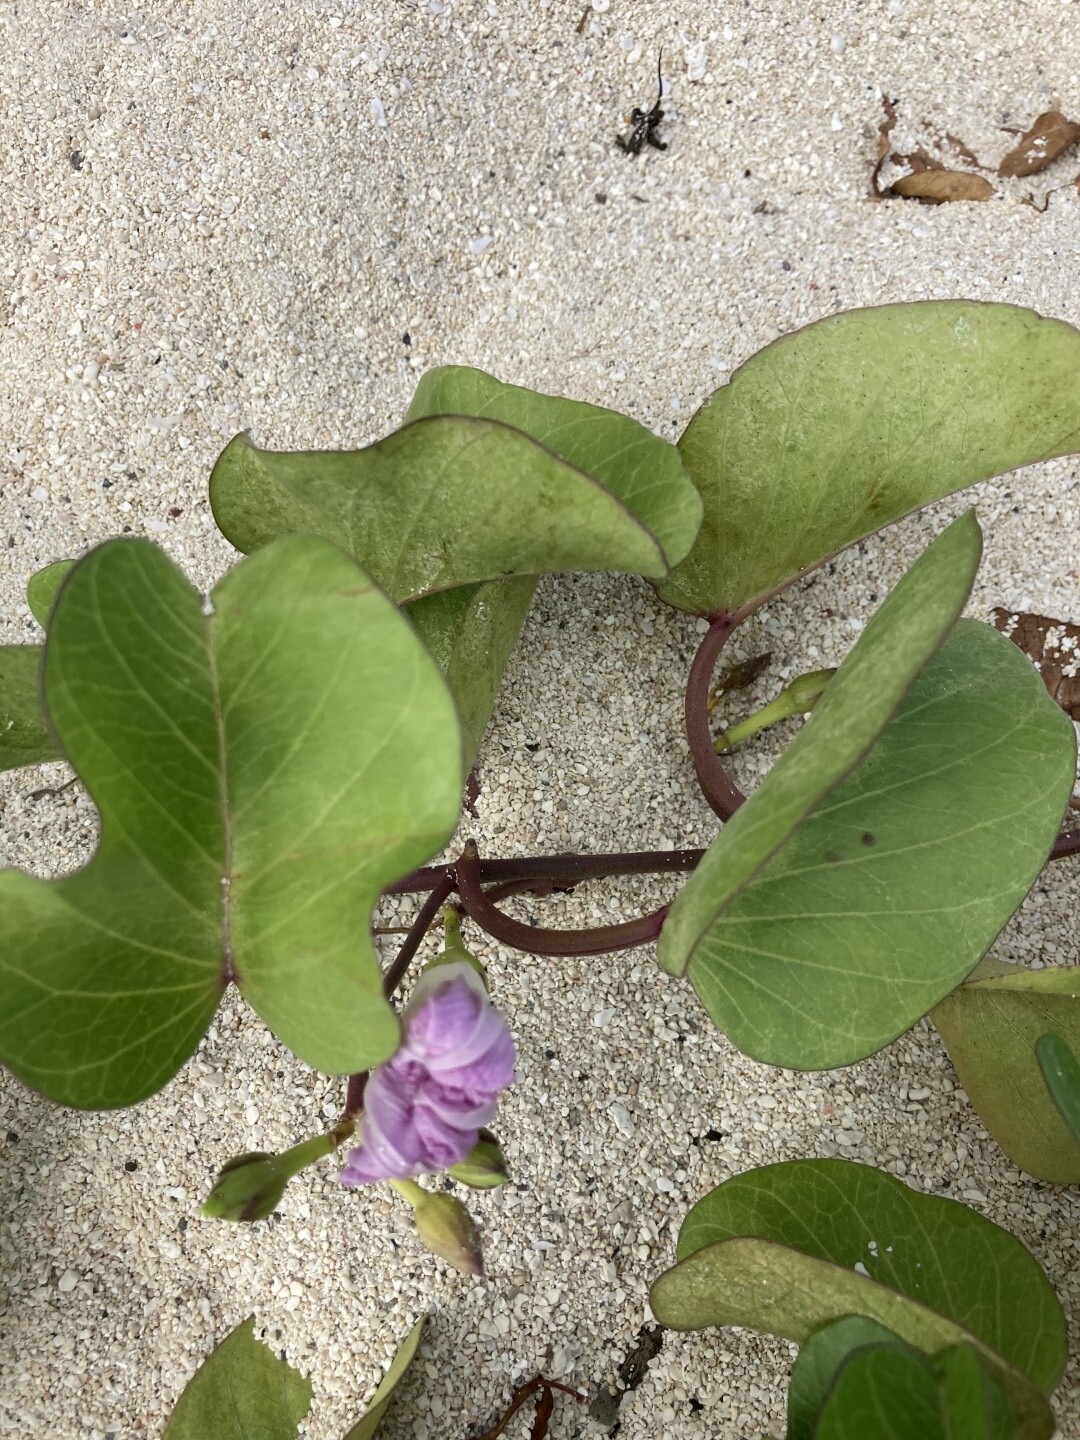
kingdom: Plantae
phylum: Tracheophyta
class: Magnoliopsida
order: Solanales
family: Convolvulaceae
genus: Ipomoea
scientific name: Ipomoea pes-caprae
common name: Beach morning glory
